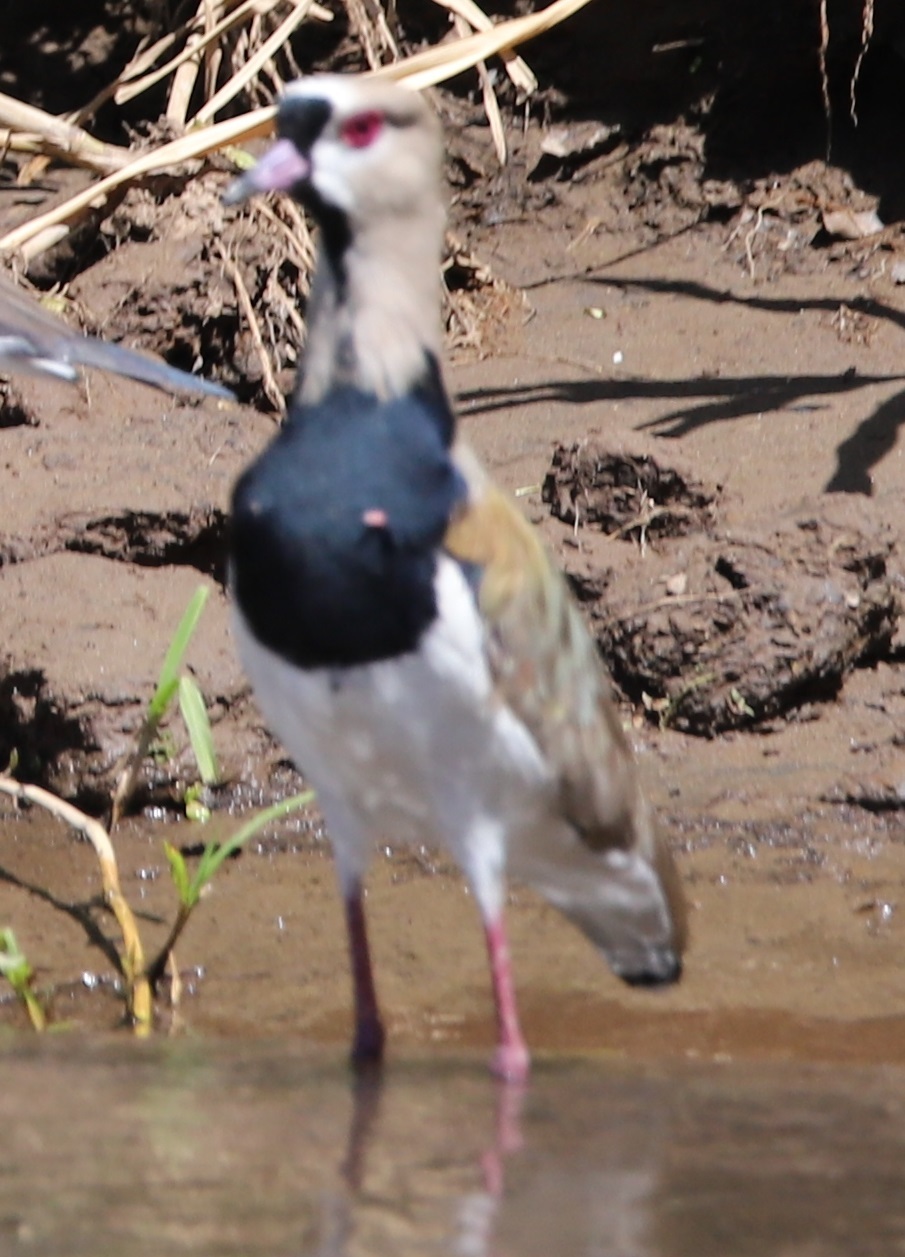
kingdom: Animalia
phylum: Chordata
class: Aves
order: Charadriiformes
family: Charadriidae
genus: Vanellus
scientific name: Vanellus chilensis
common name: Southern lapwing
